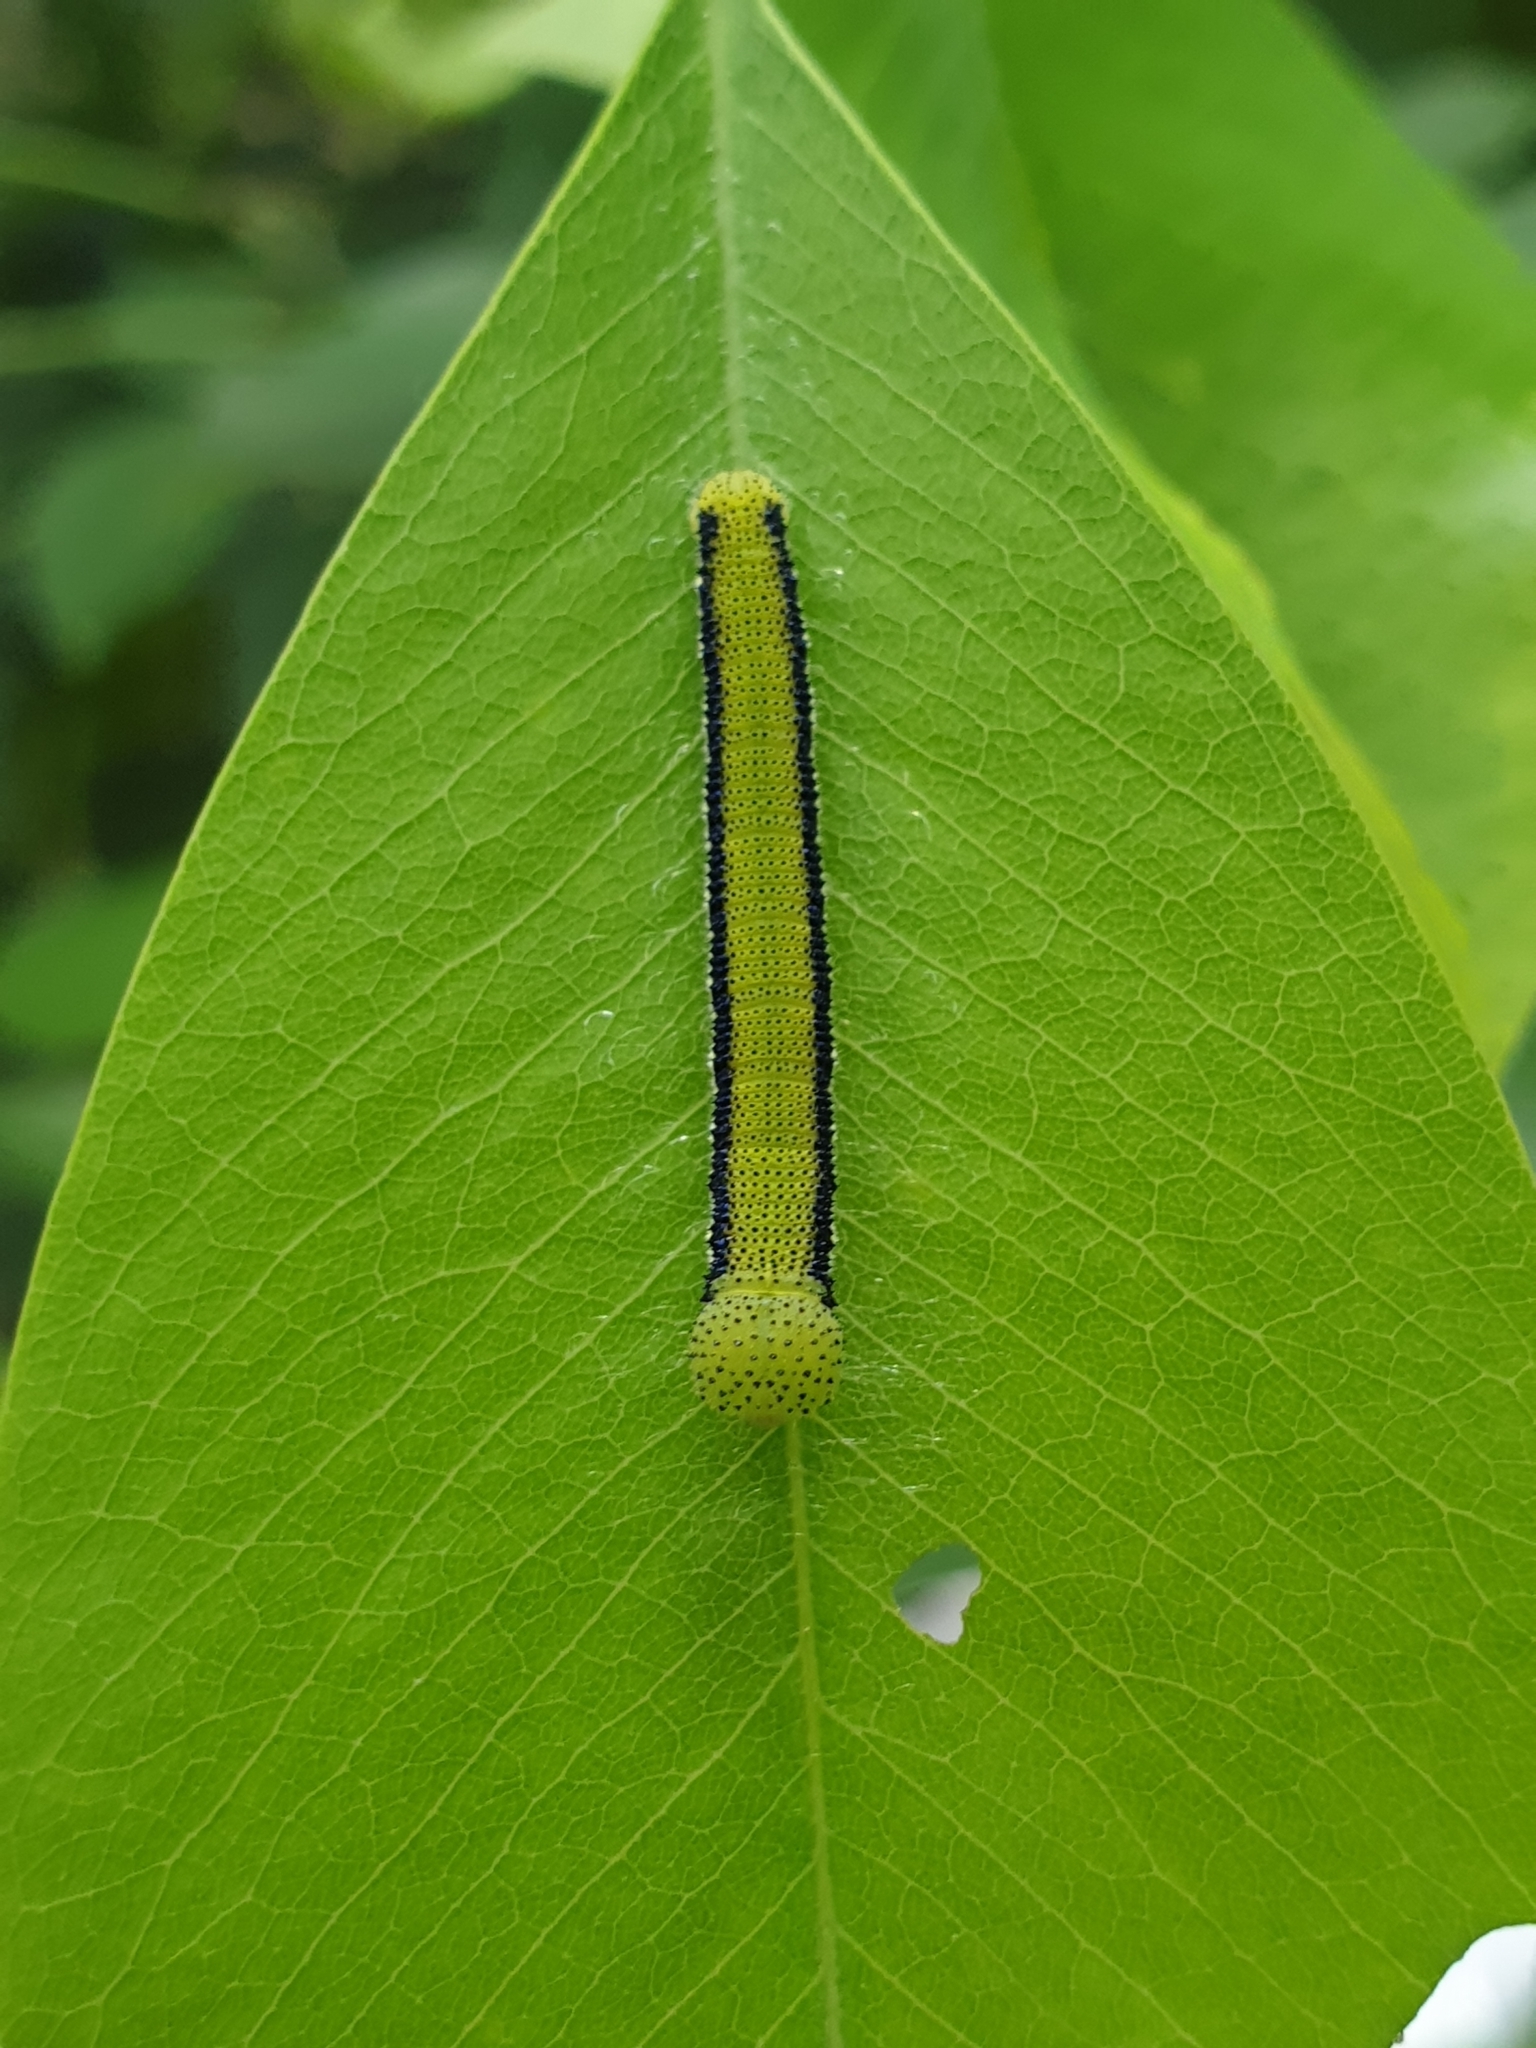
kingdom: Animalia
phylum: Arthropoda
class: Insecta
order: Lepidoptera
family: Pieridae
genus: Catopsilia
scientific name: Catopsilia pomona
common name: Common emigrant
